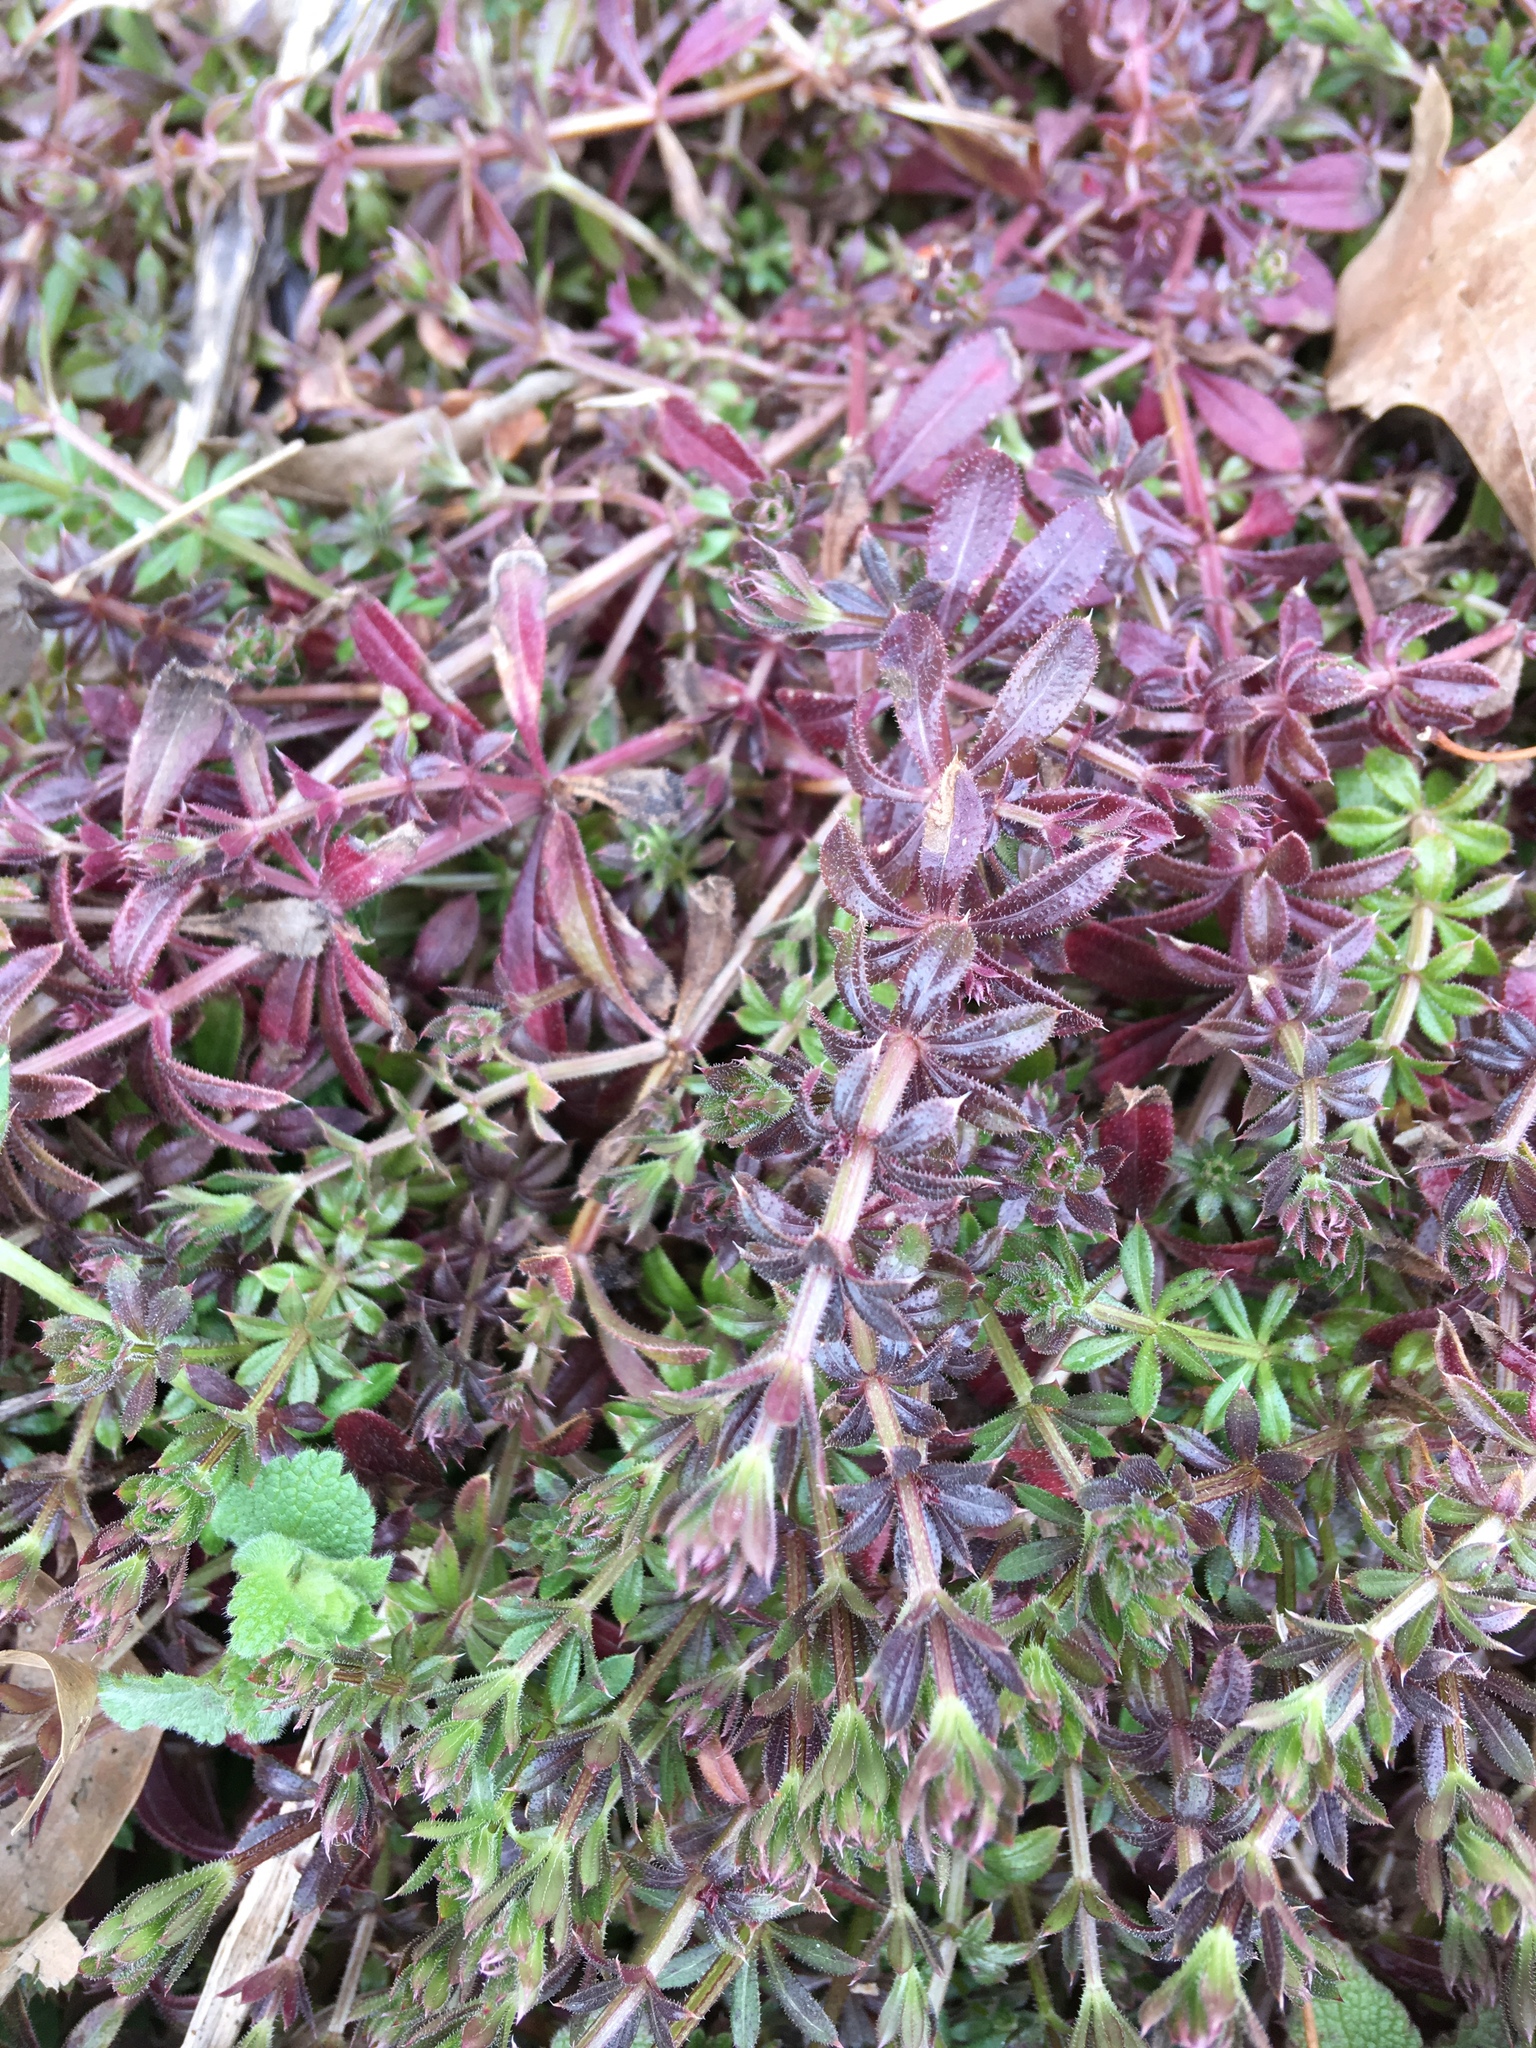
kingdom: Plantae
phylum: Tracheophyta
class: Magnoliopsida
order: Gentianales
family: Rubiaceae
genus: Galium
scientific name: Galium aparine
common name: Cleavers
